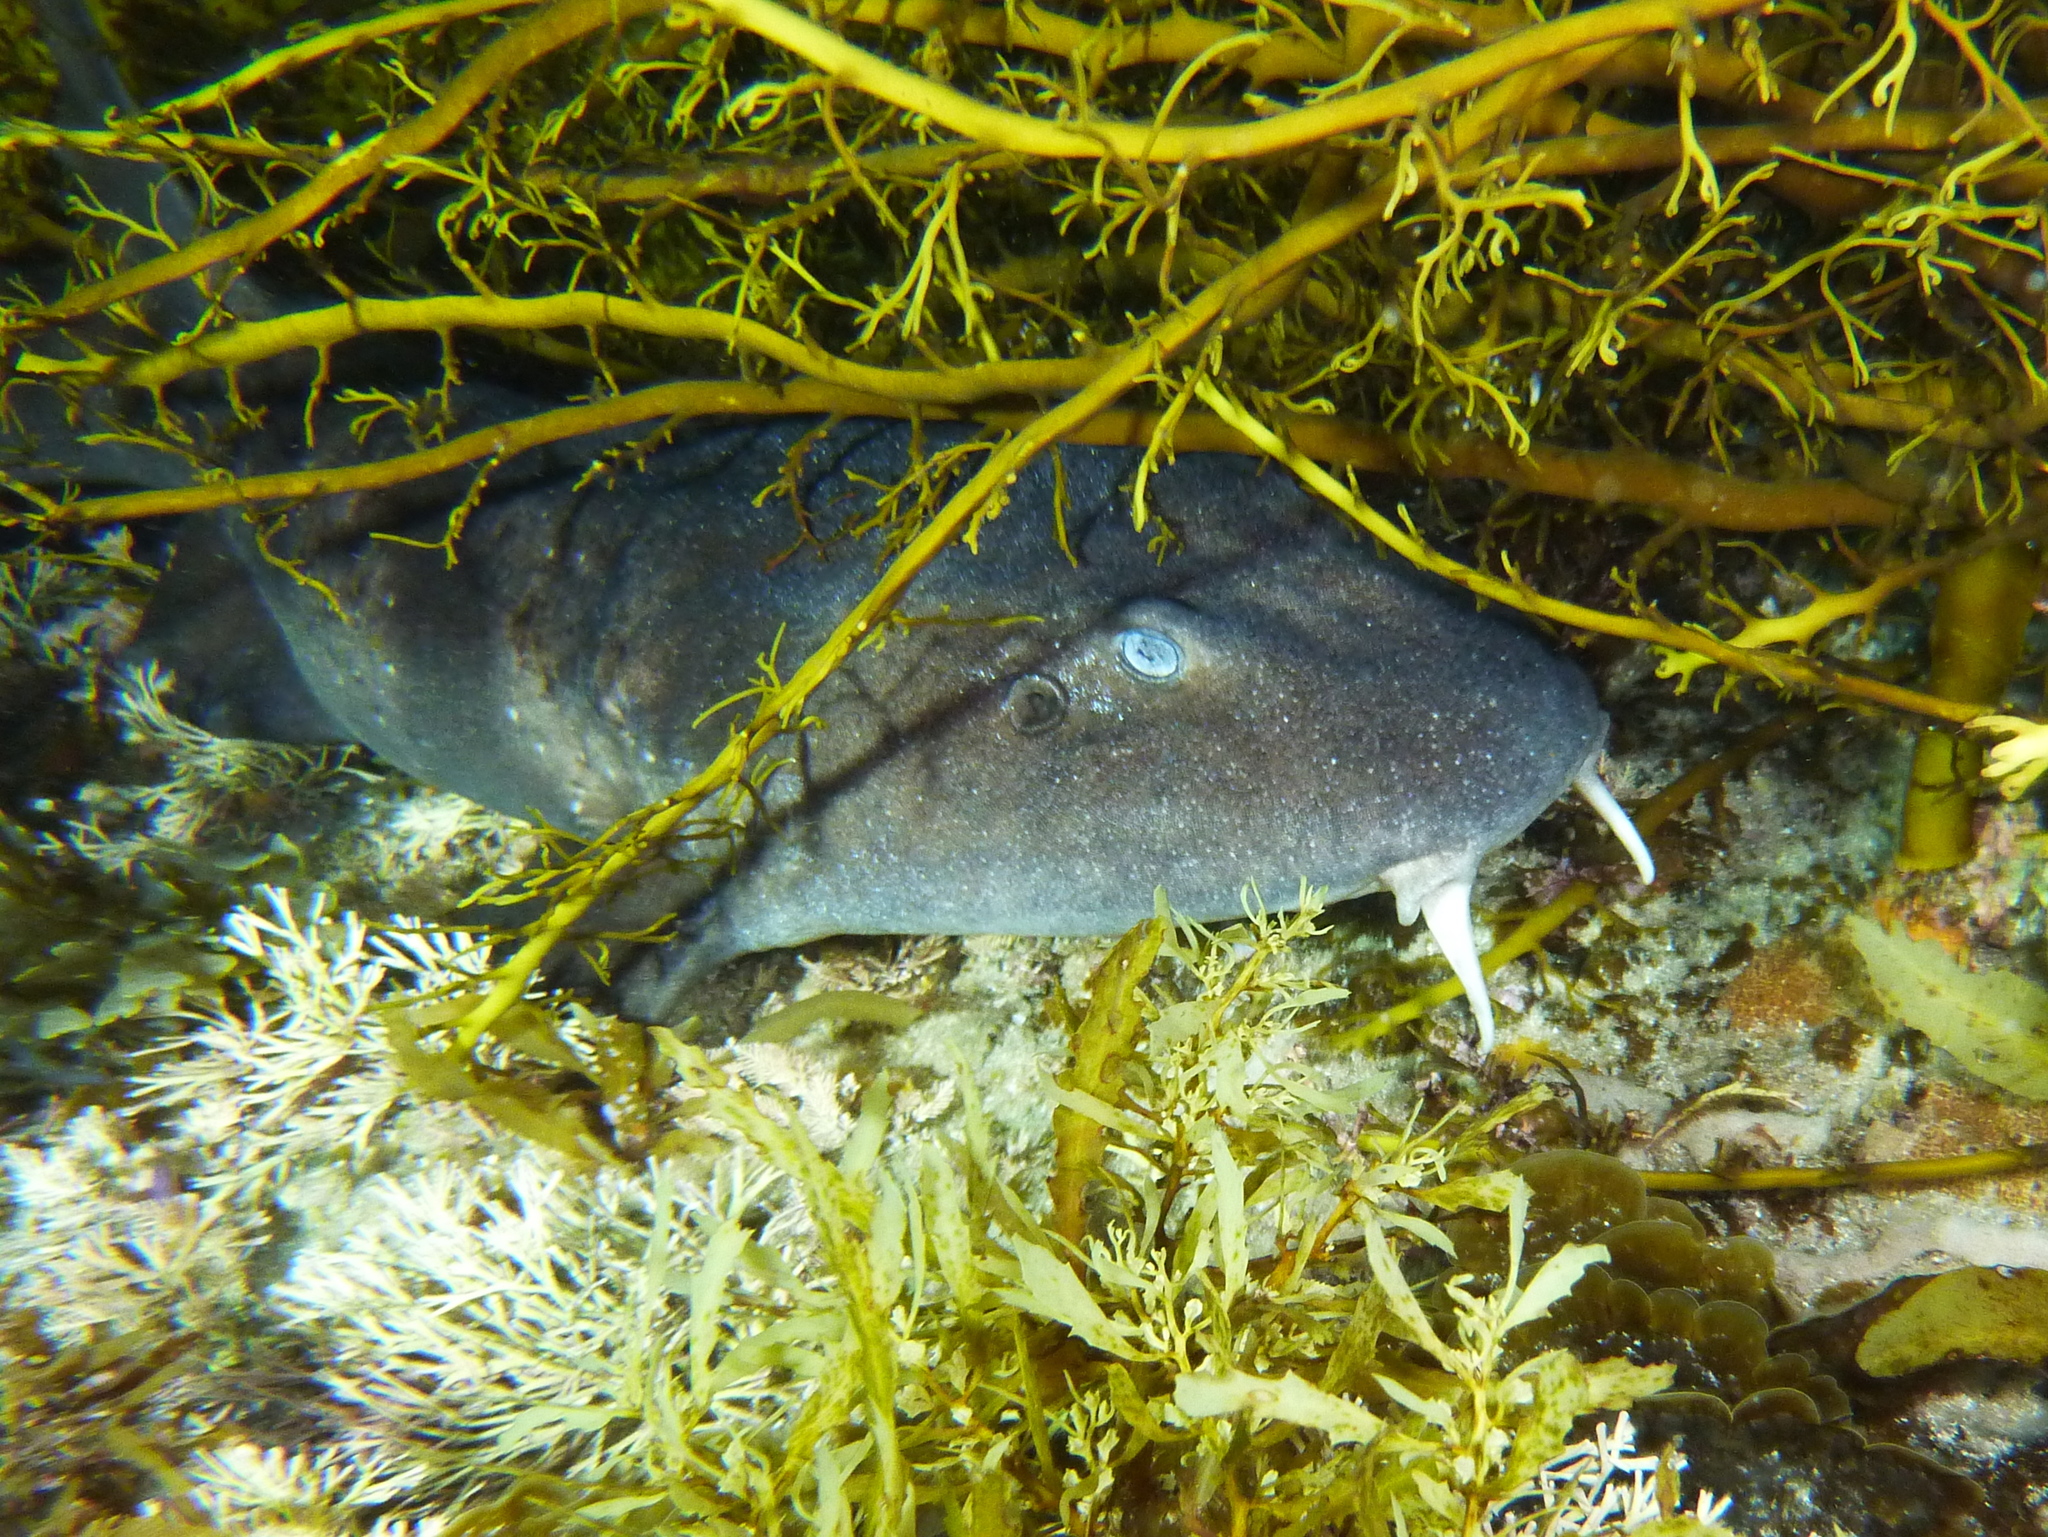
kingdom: Animalia
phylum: Chordata
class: Elasmobranchii
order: Orectolobiformes
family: Brachaeluridae
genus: Brachaelurus
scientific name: Brachaelurus waddi
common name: Blind shark
